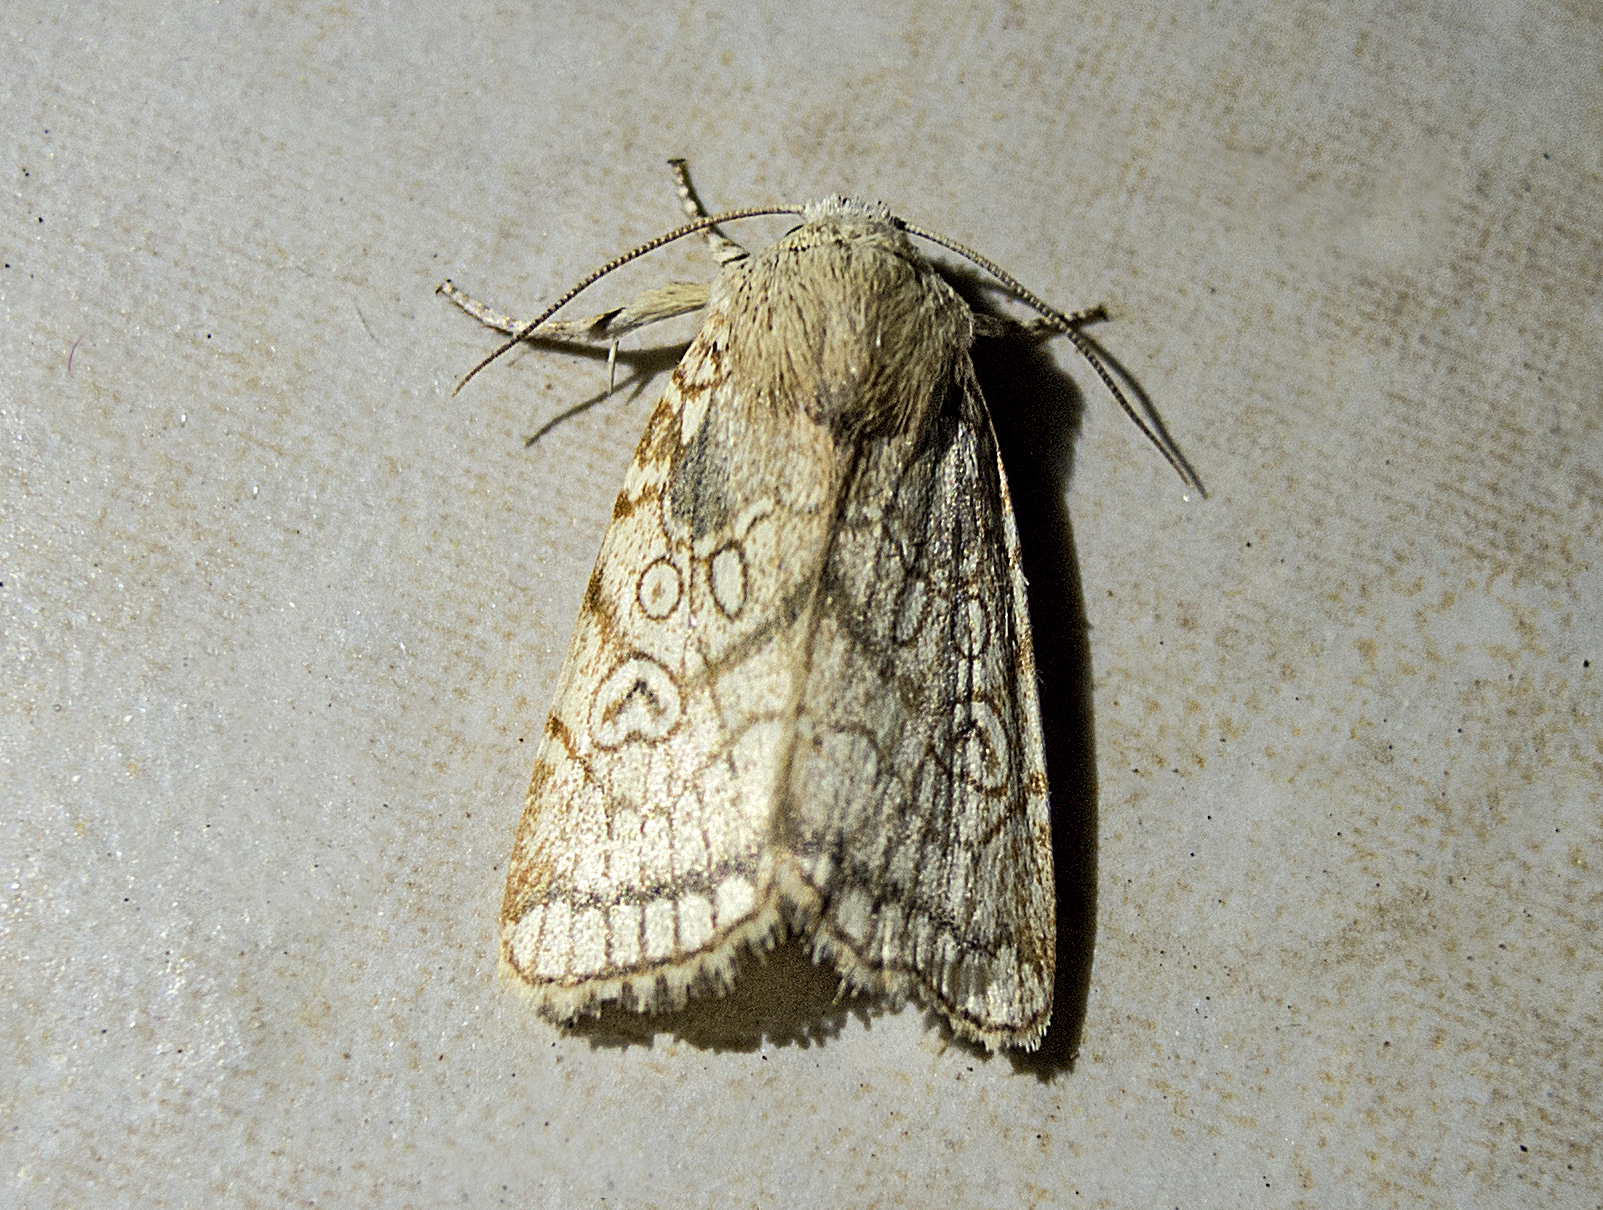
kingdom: Animalia
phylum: Arthropoda
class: Insecta
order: Lepidoptera
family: Noctuidae
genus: Dicycla
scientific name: Dicycla oo
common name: Heart moth
